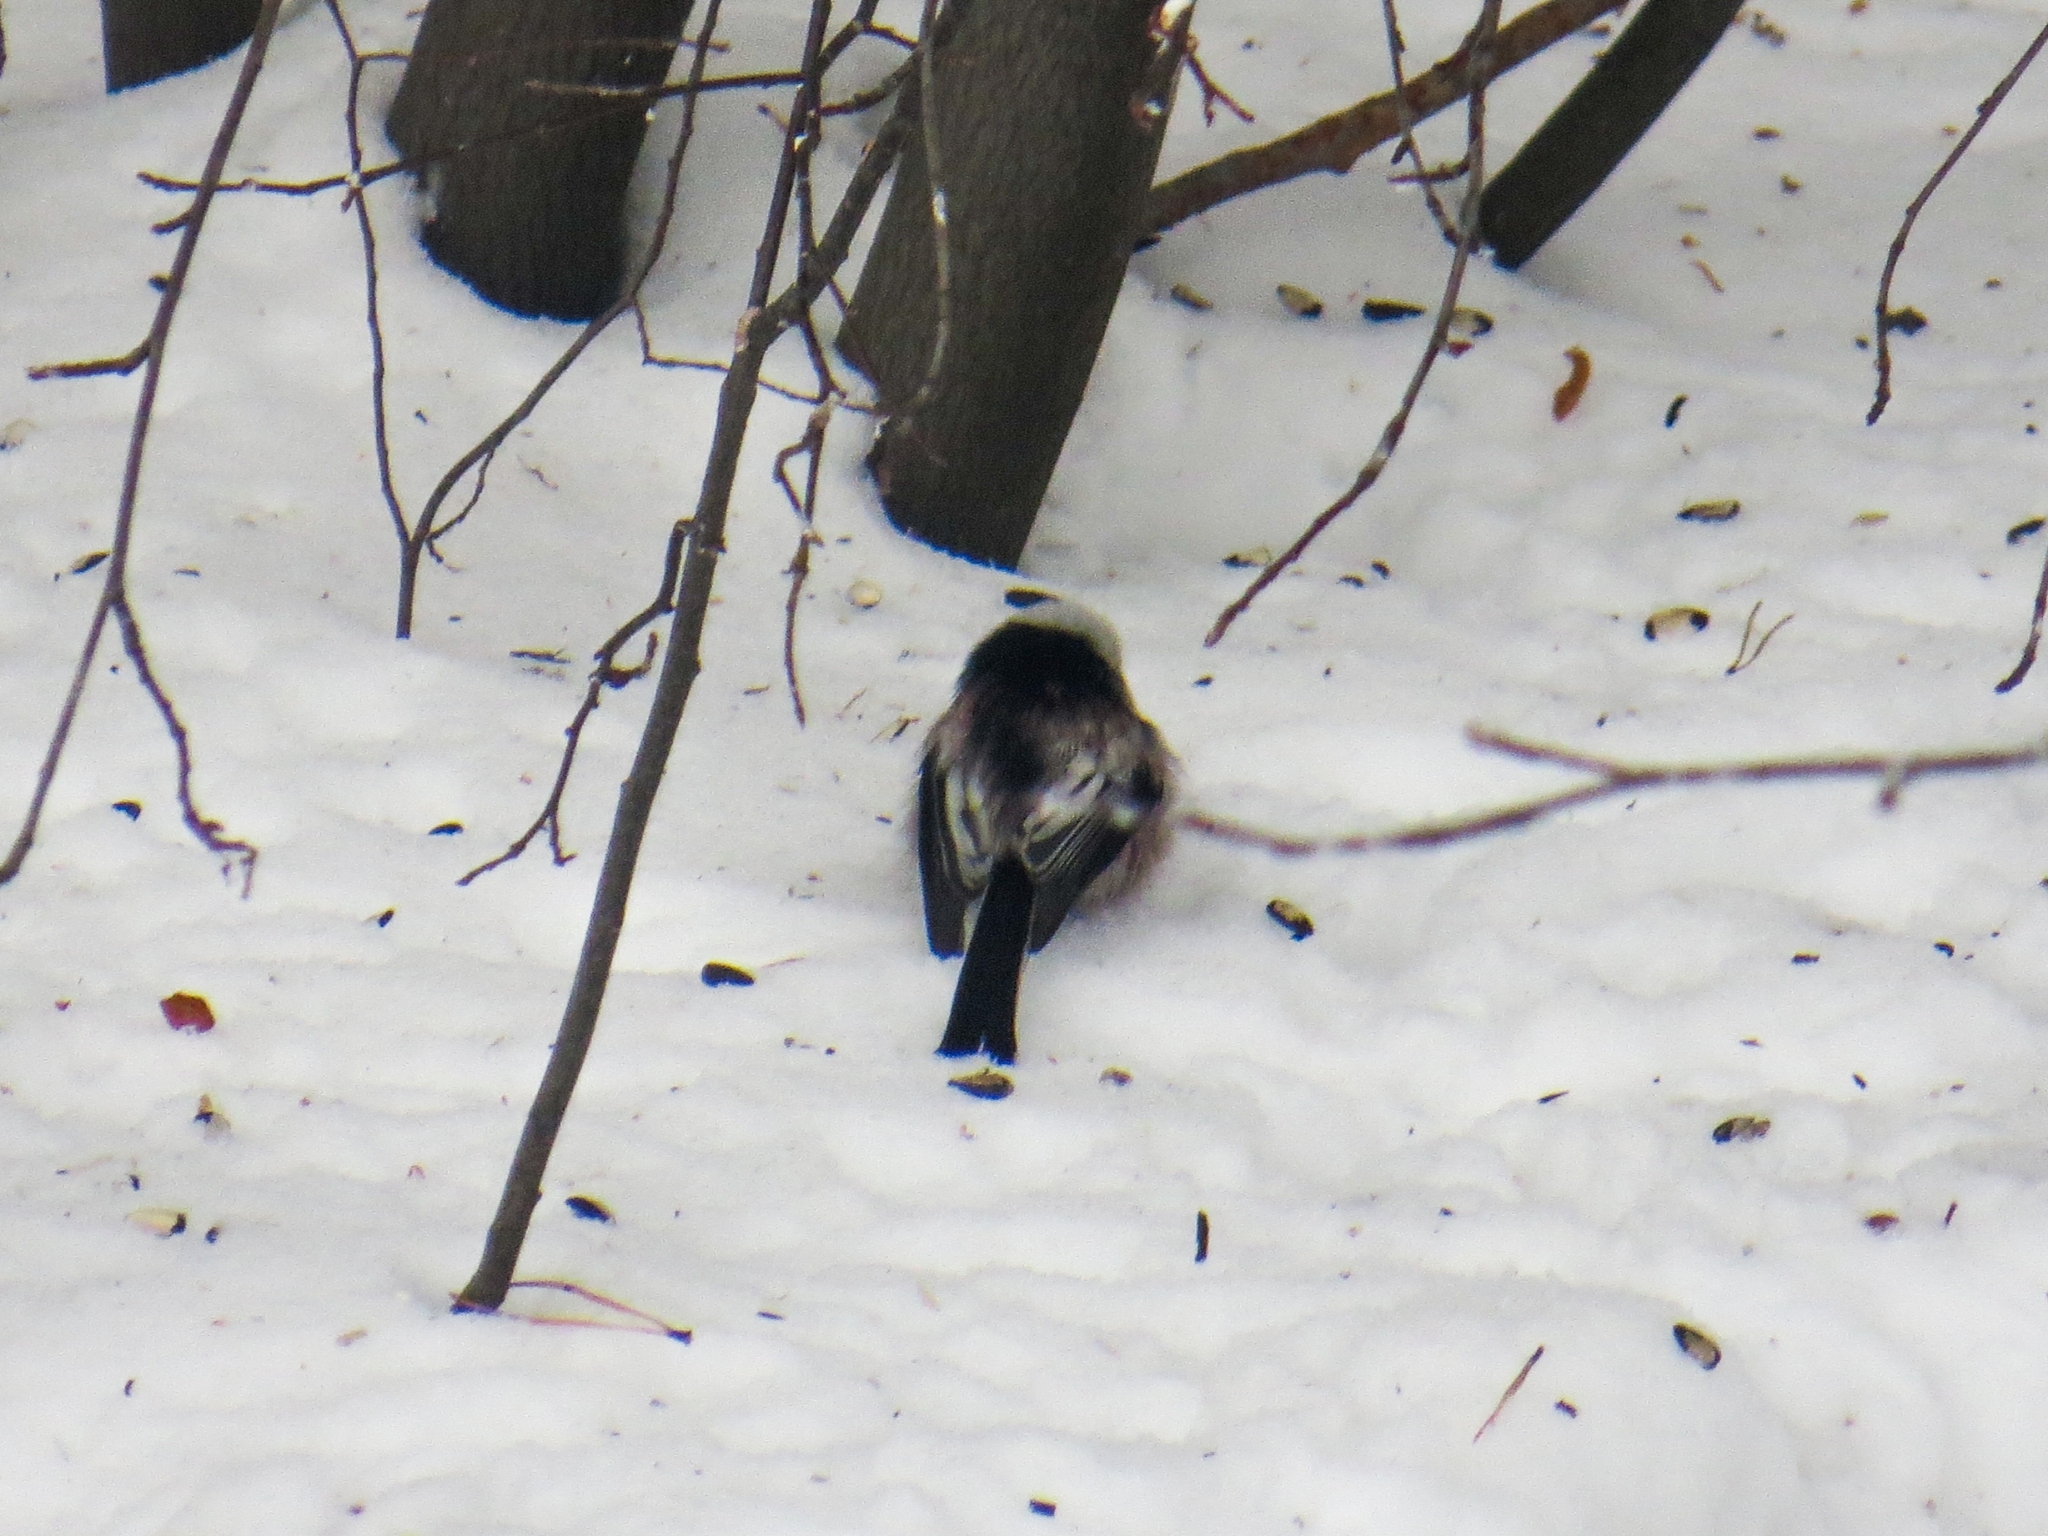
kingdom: Animalia
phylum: Chordata
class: Aves
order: Passeriformes
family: Aegithalidae
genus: Aegithalos
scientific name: Aegithalos caudatus
